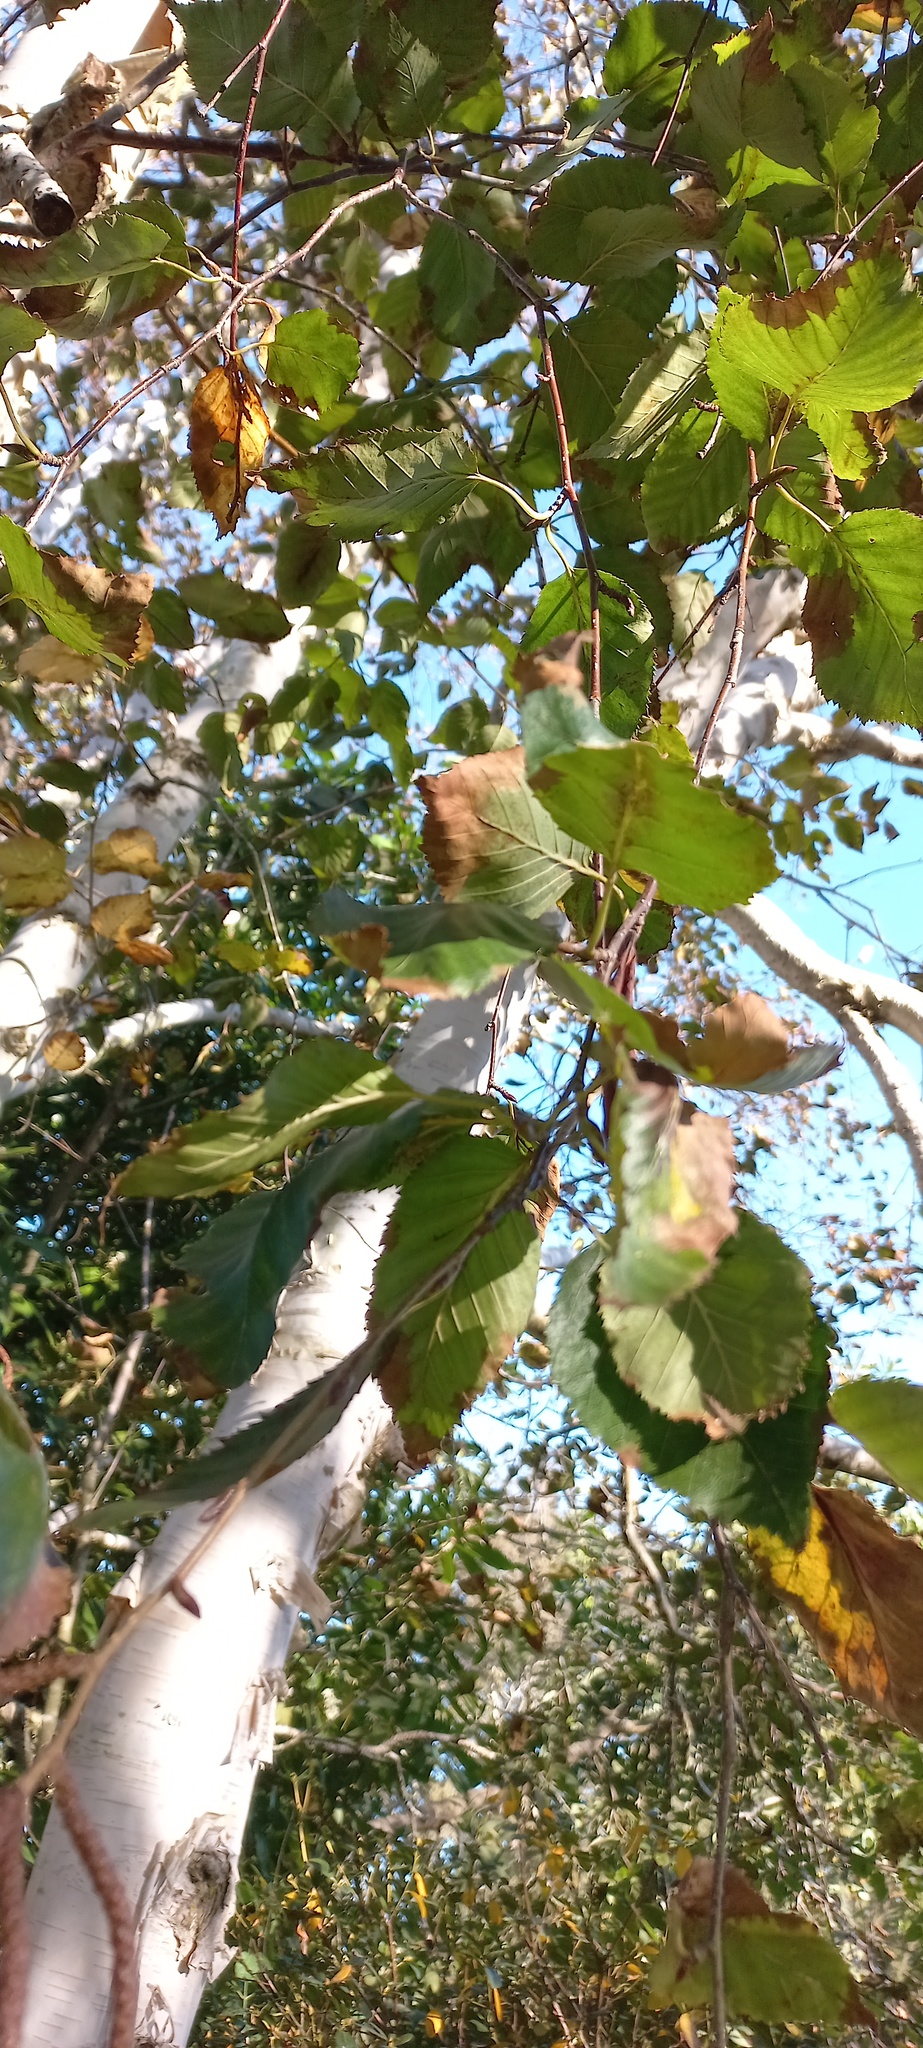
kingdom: Plantae
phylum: Tracheophyta
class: Magnoliopsida
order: Fagales
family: Betulaceae
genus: Betula
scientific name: Betula pendula
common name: Silver birch
